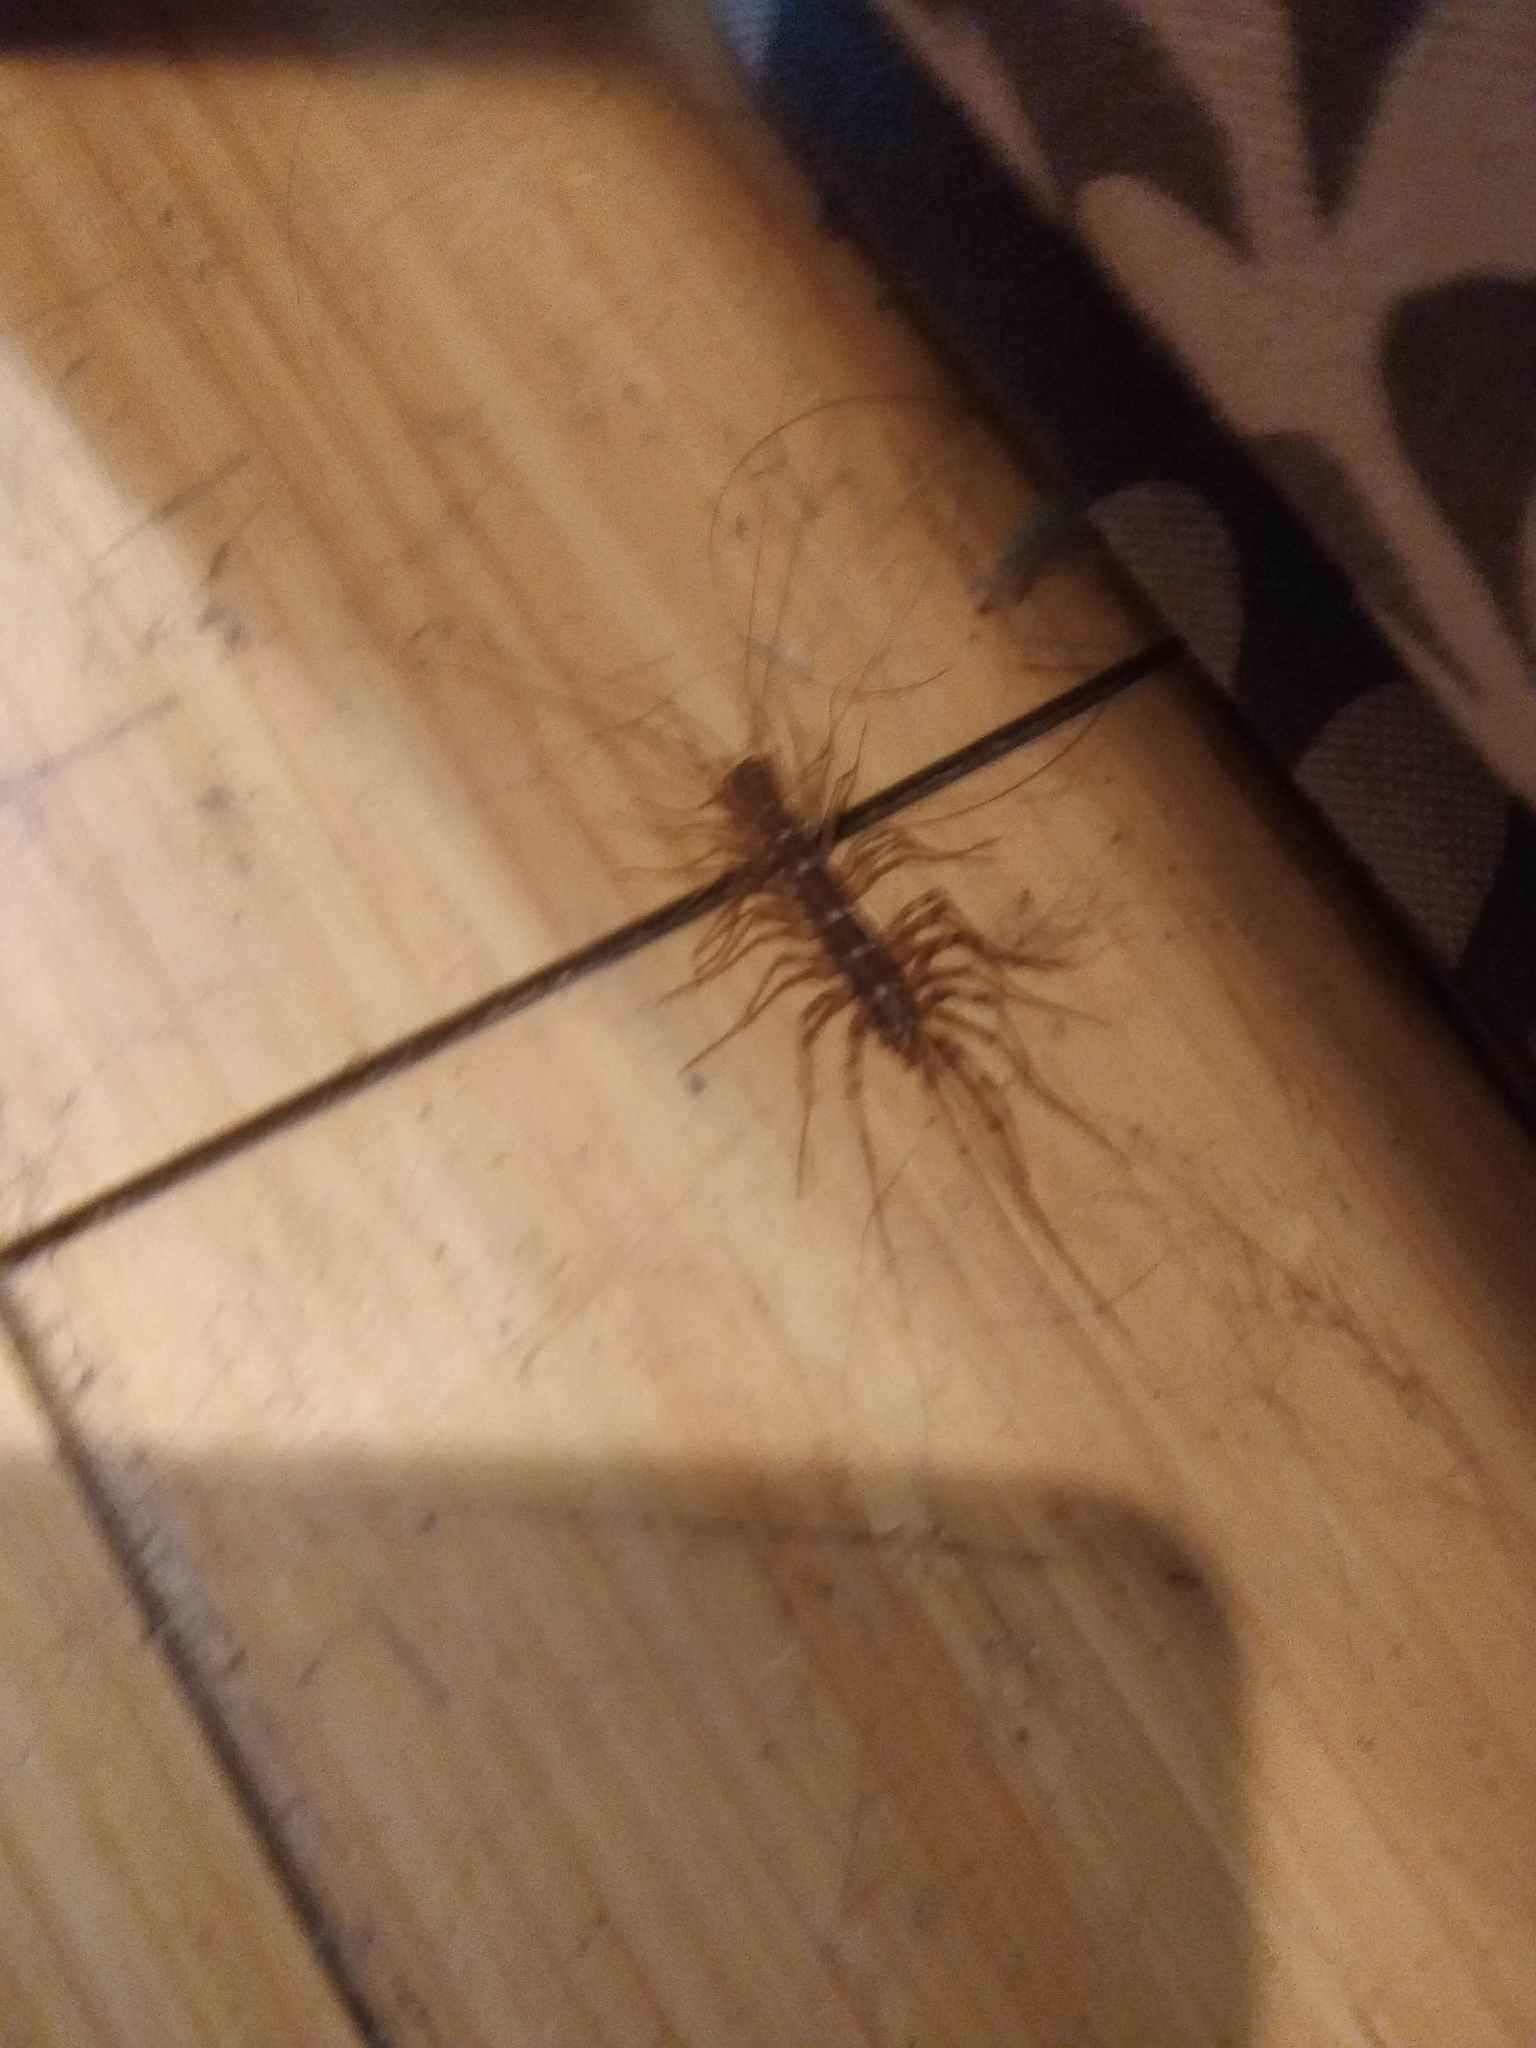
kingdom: Animalia
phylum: Arthropoda
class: Chilopoda
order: Scutigeromorpha
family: Scutigeridae
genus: Scutigera
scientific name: Scutigera coleoptrata
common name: House centipede
